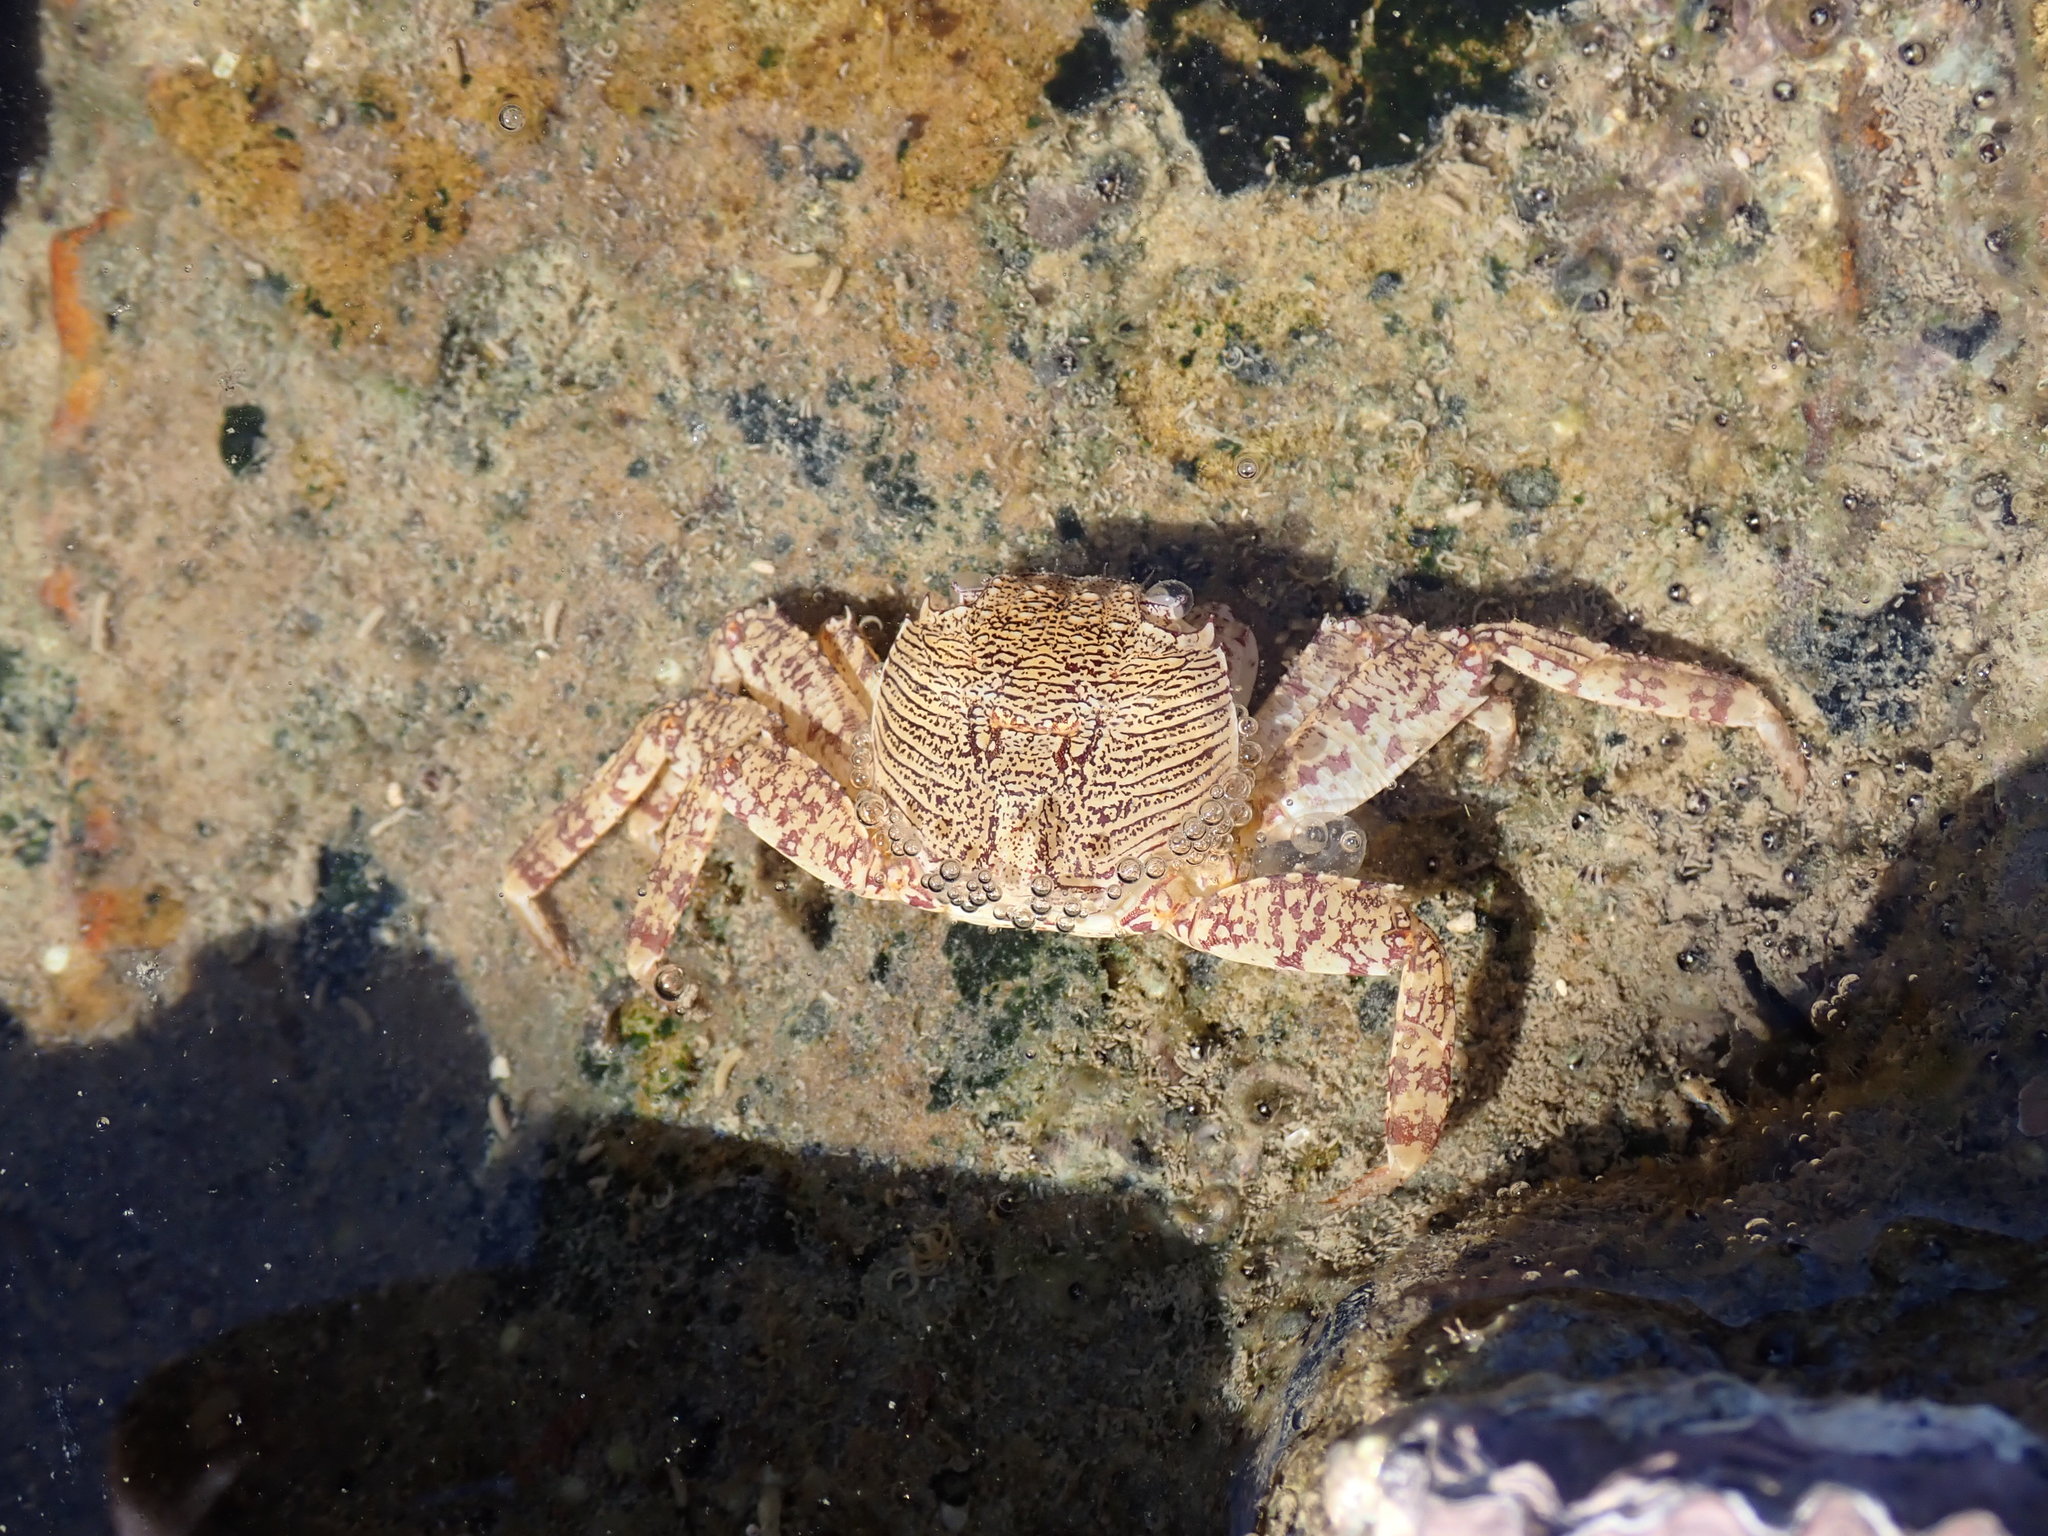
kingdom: Animalia
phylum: Arthropoda
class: Malacostraca
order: Decapoda
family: Grapsidae
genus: Grapsus
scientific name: Grapsus albolineatus
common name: Mottled lightfoot crab
